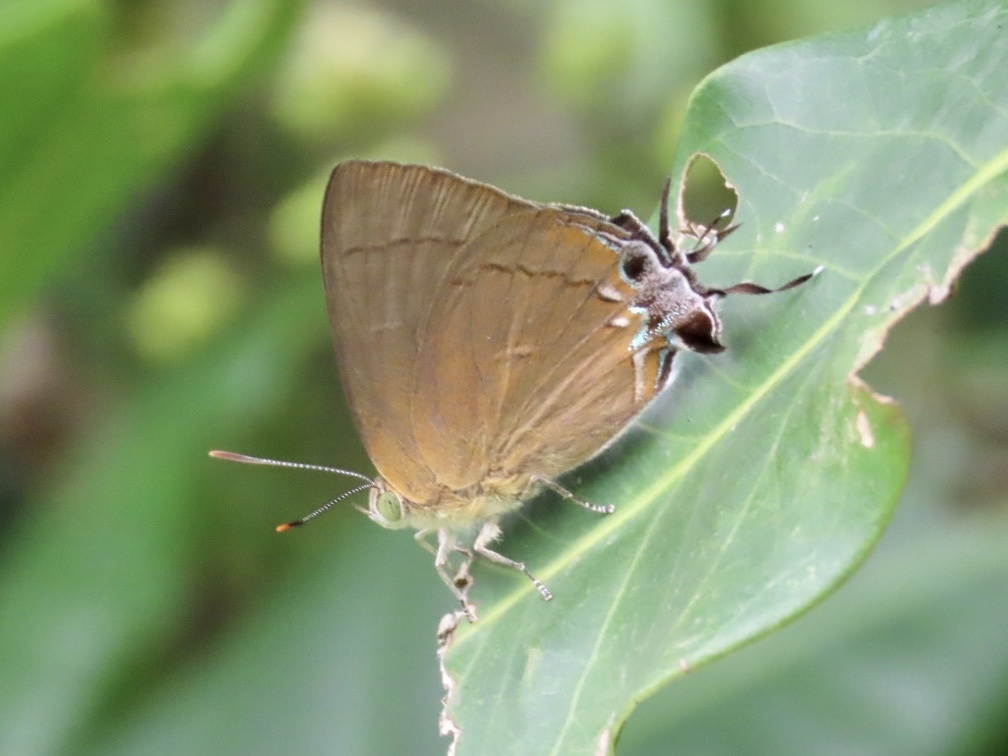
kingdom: Animalia
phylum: Arthropoda
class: Insecta
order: Lepidoptera
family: Lycaenidae
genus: Remelana
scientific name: Remelana jangala
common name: Chocolate royal
